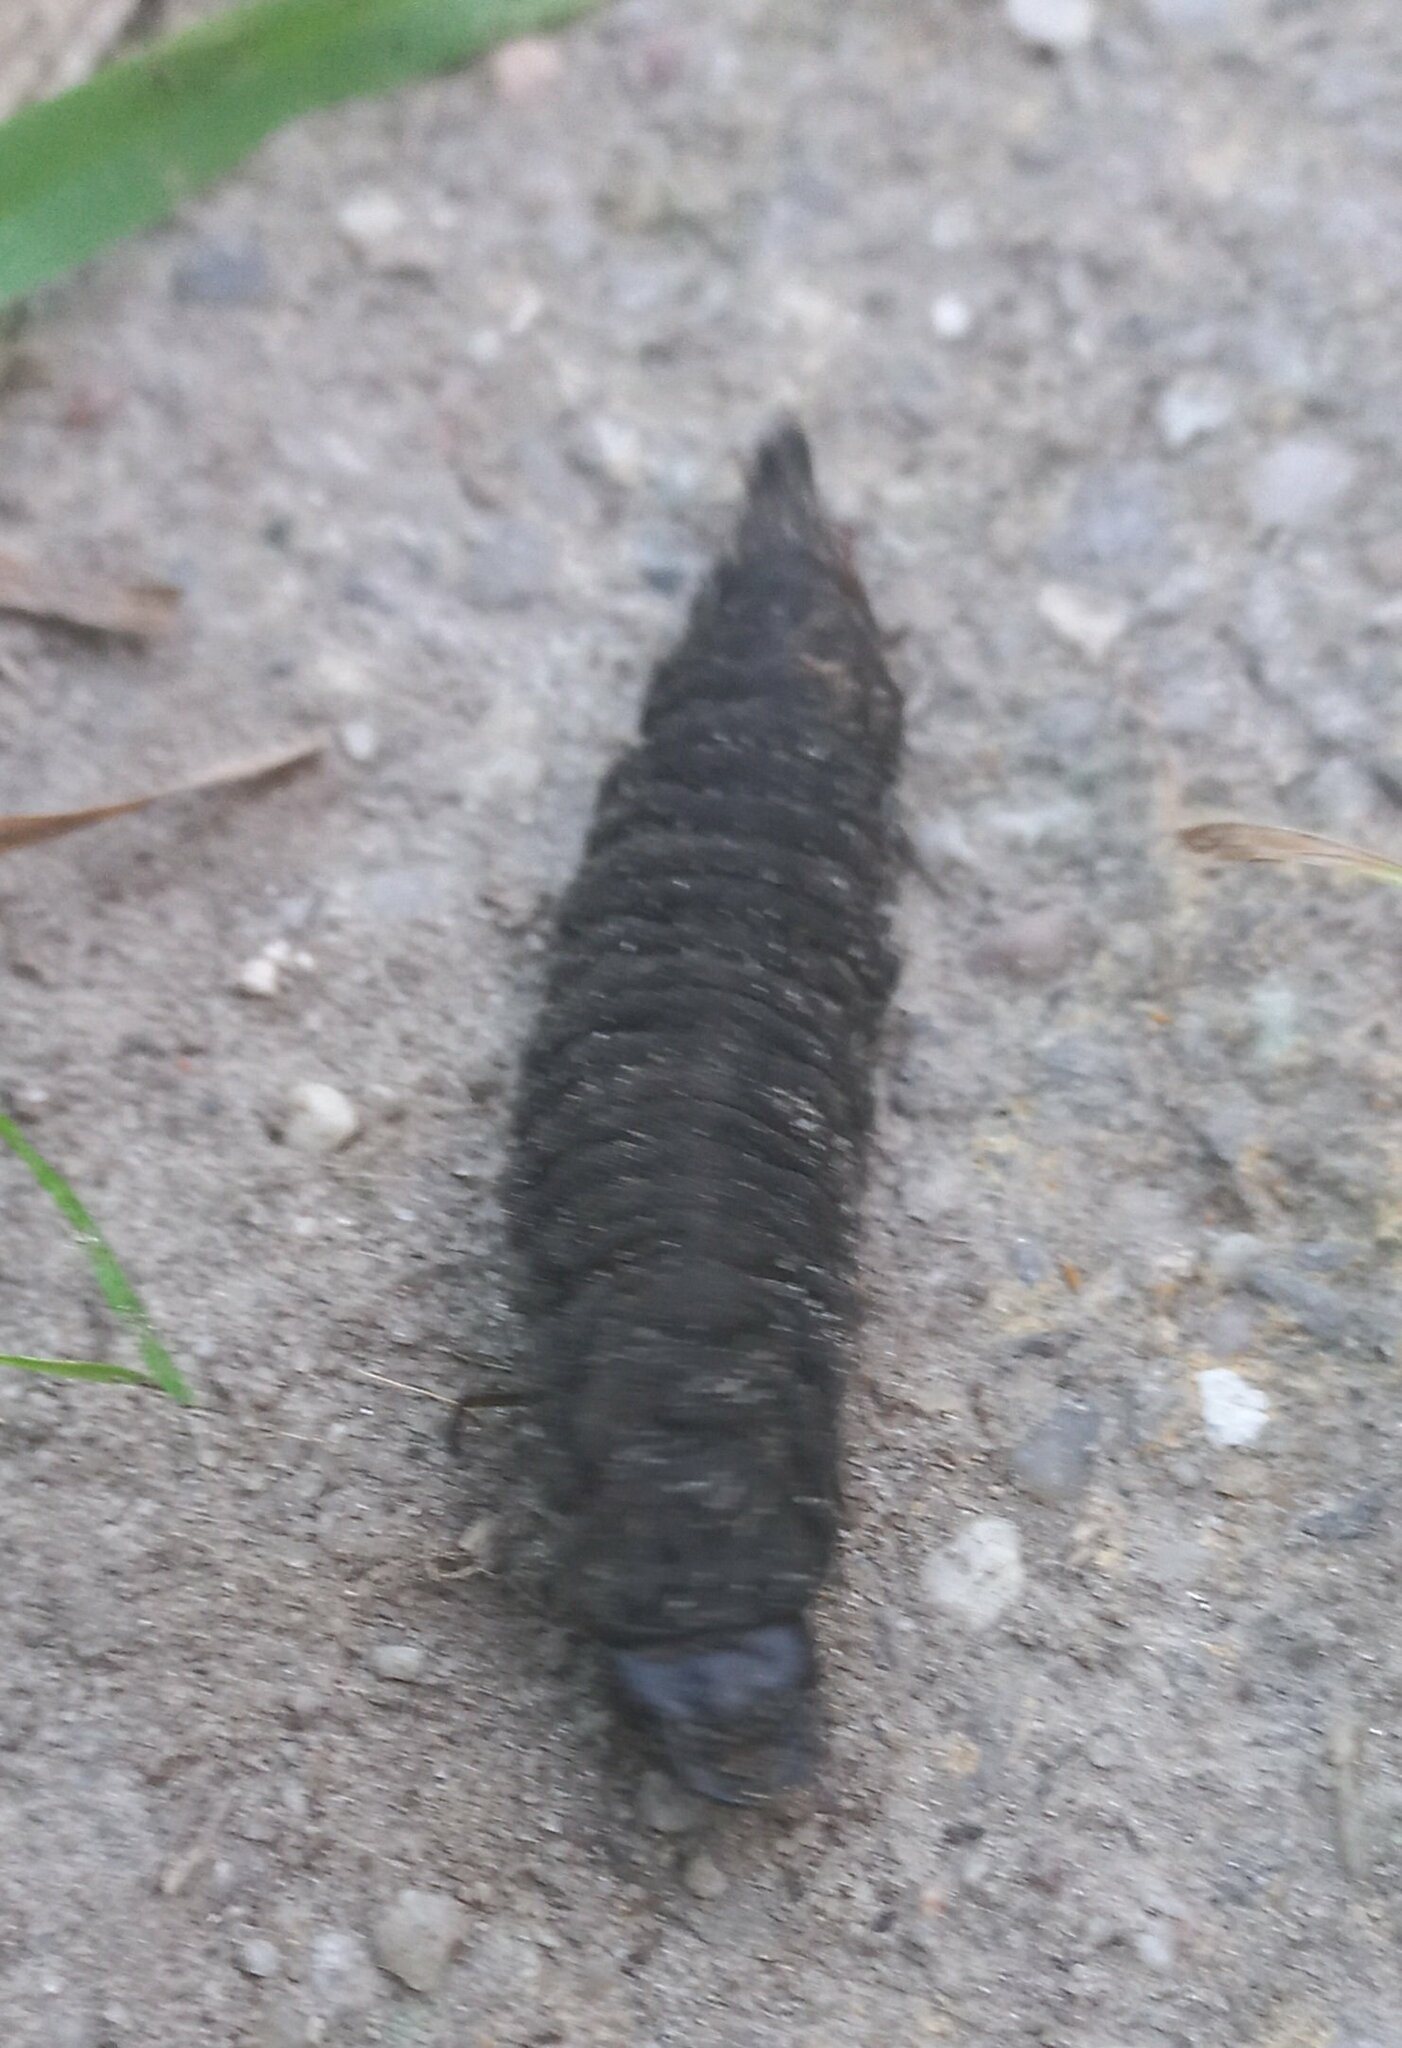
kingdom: Animalia
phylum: Arthropoda
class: Insecta
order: Coleoptera
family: Hydrophilidae
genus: Hydrophilus
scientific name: Hydrophilus
